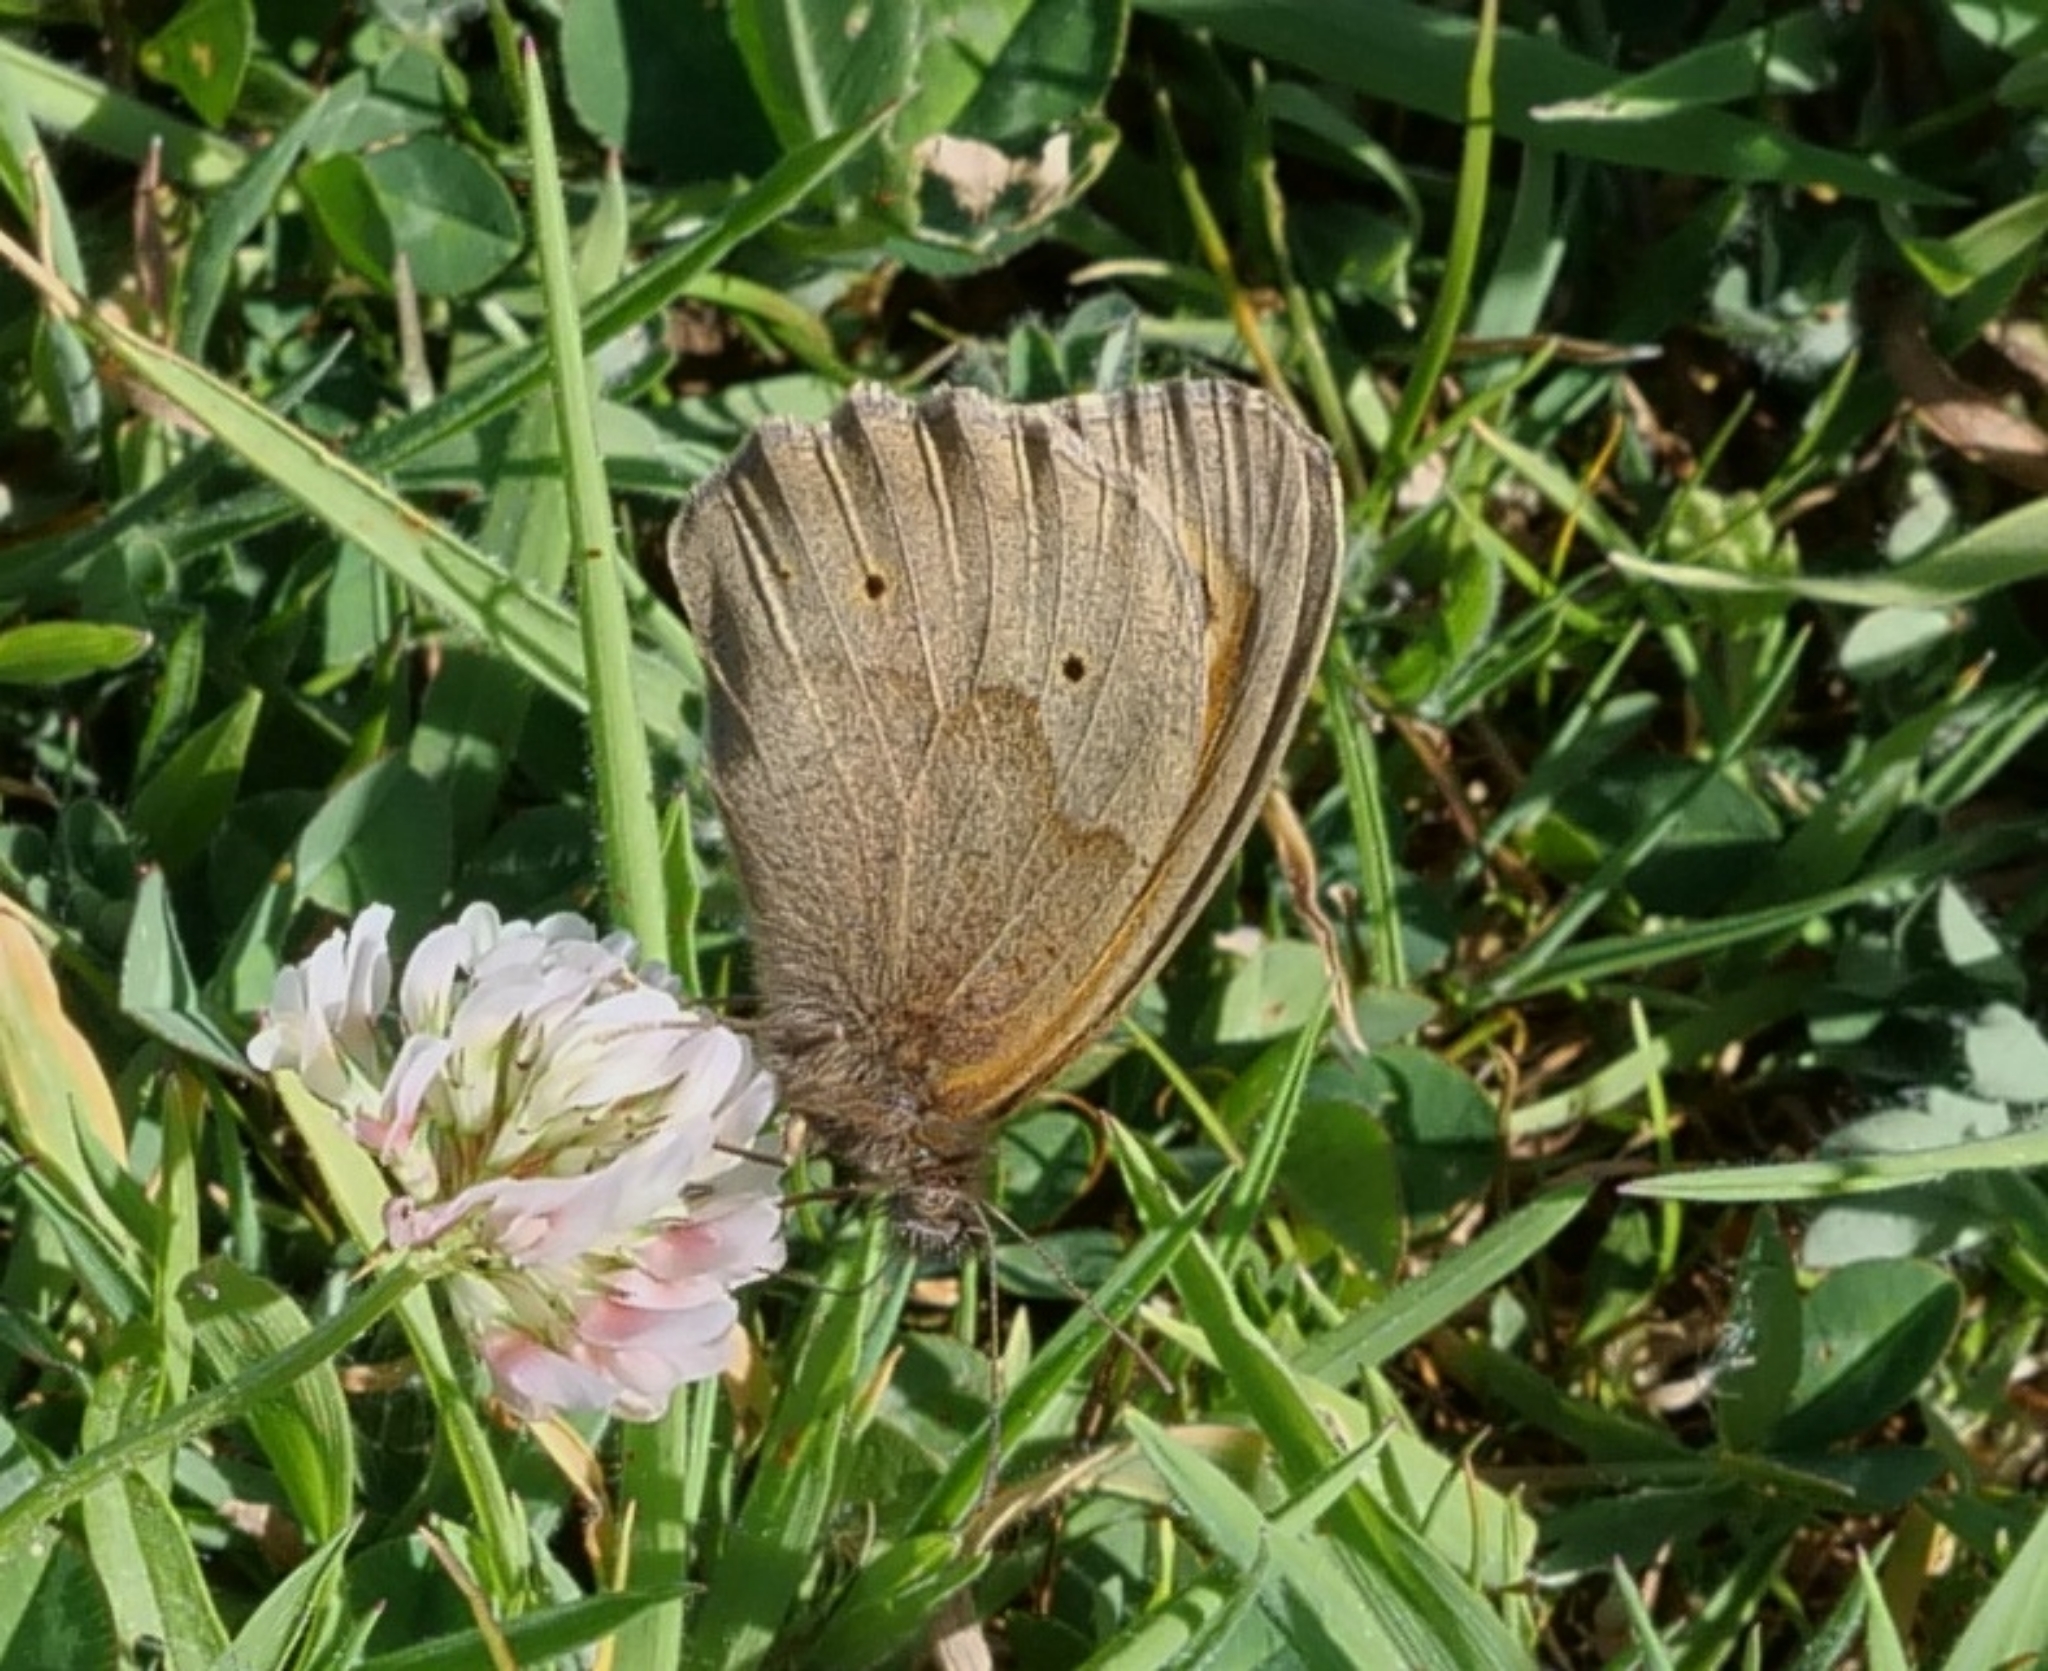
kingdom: Animalia
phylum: Arthropoda
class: Insecta
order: Lepidoptera
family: Nymphalidae
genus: Maniola
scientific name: Maniola jurtina
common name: Meadow brown
